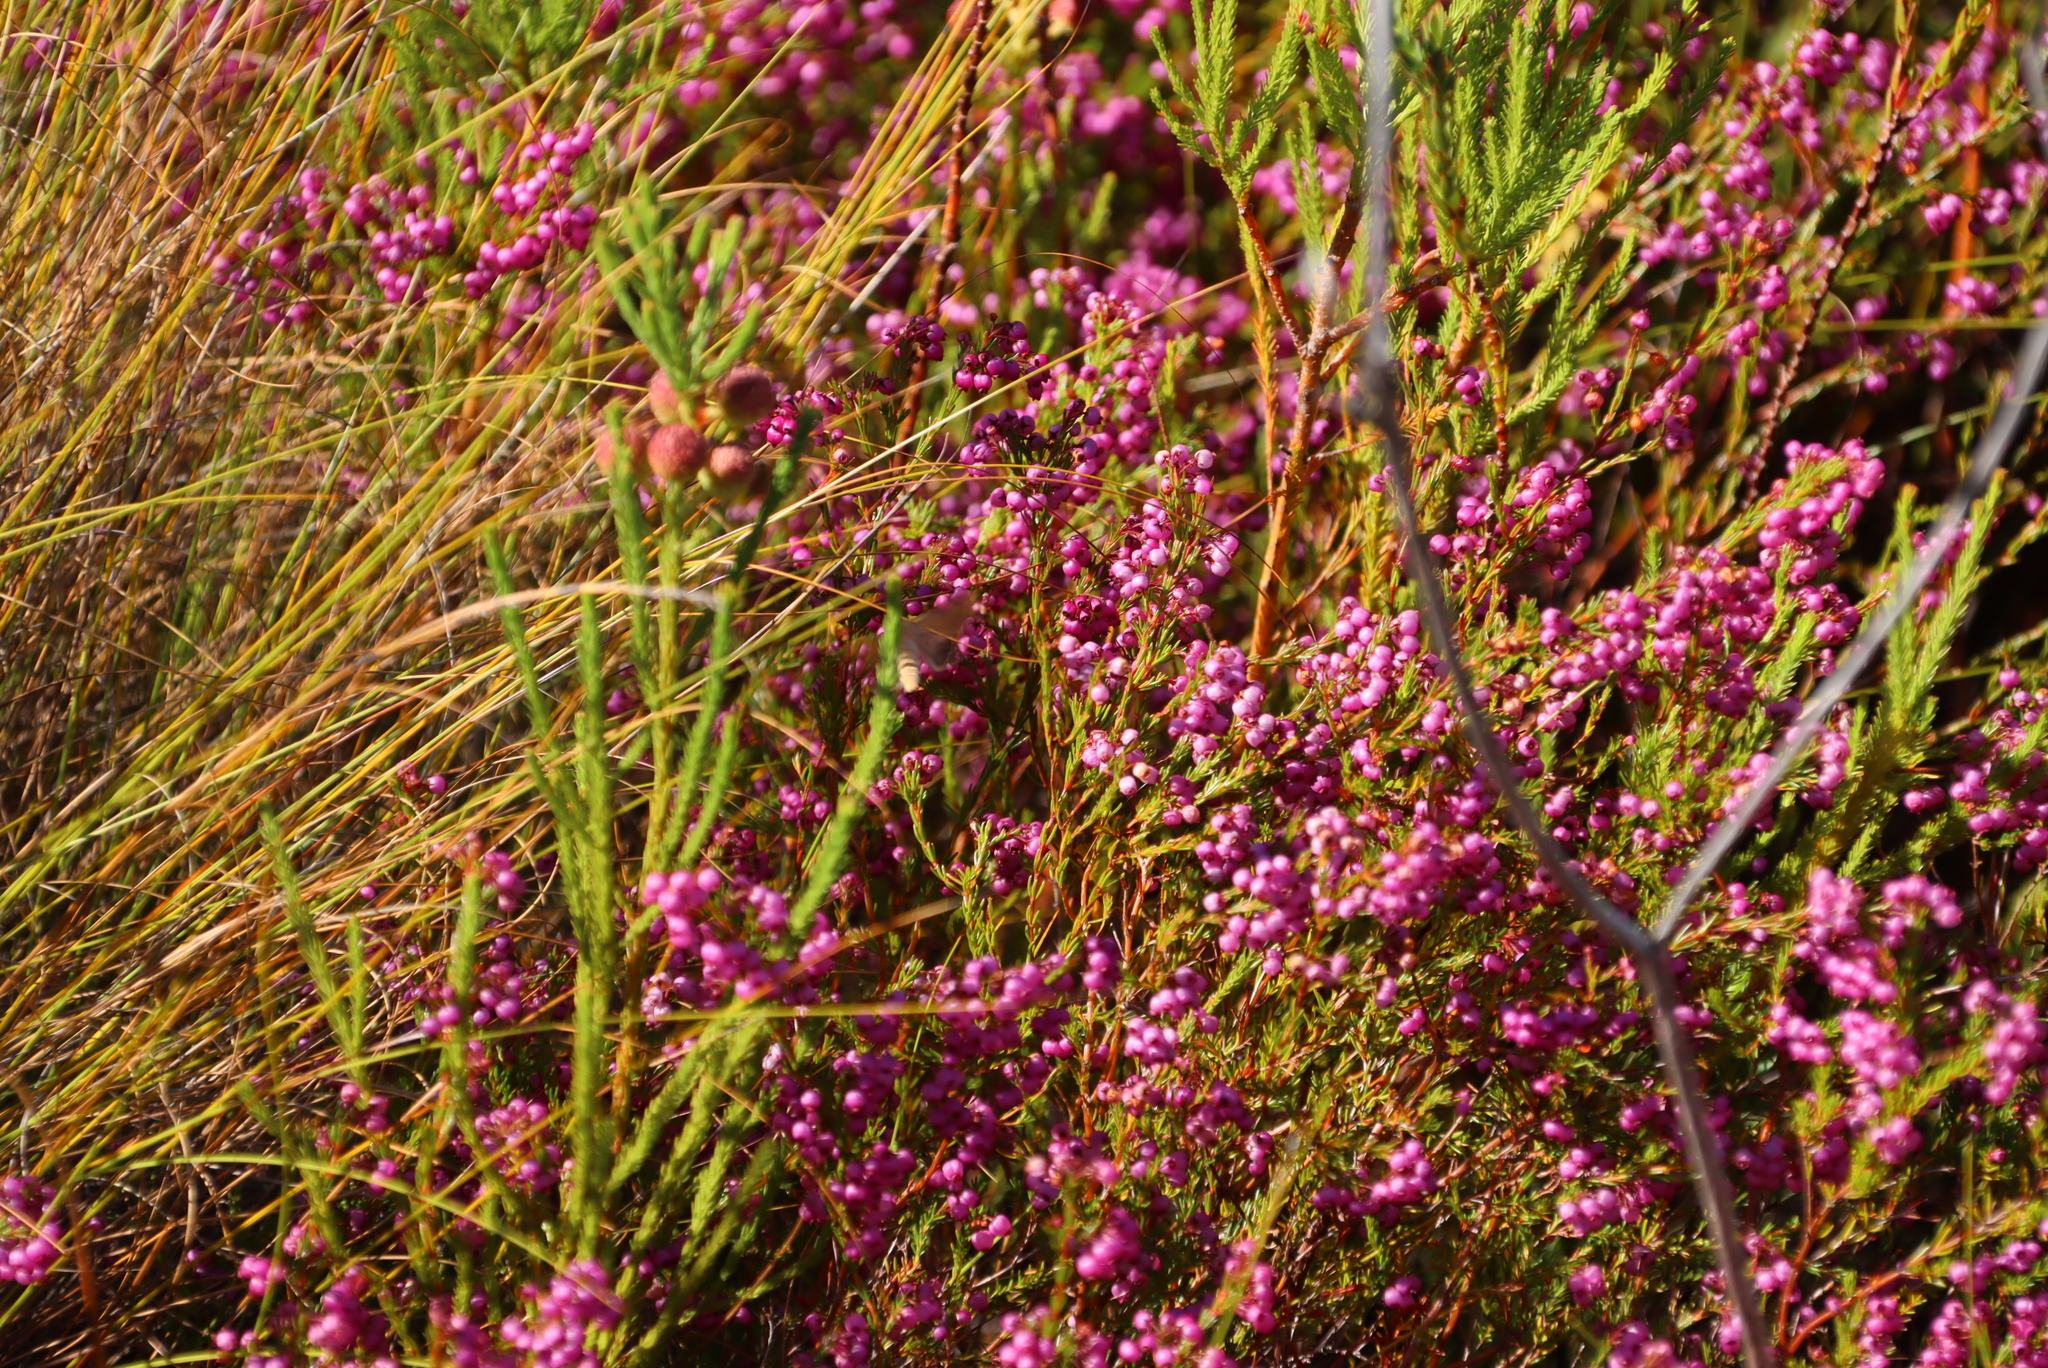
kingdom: Plantae
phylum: Tracheophyta
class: Magnoliopsida
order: Ericales
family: Ericaceae
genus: Erica
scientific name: Erica multumbellifera
